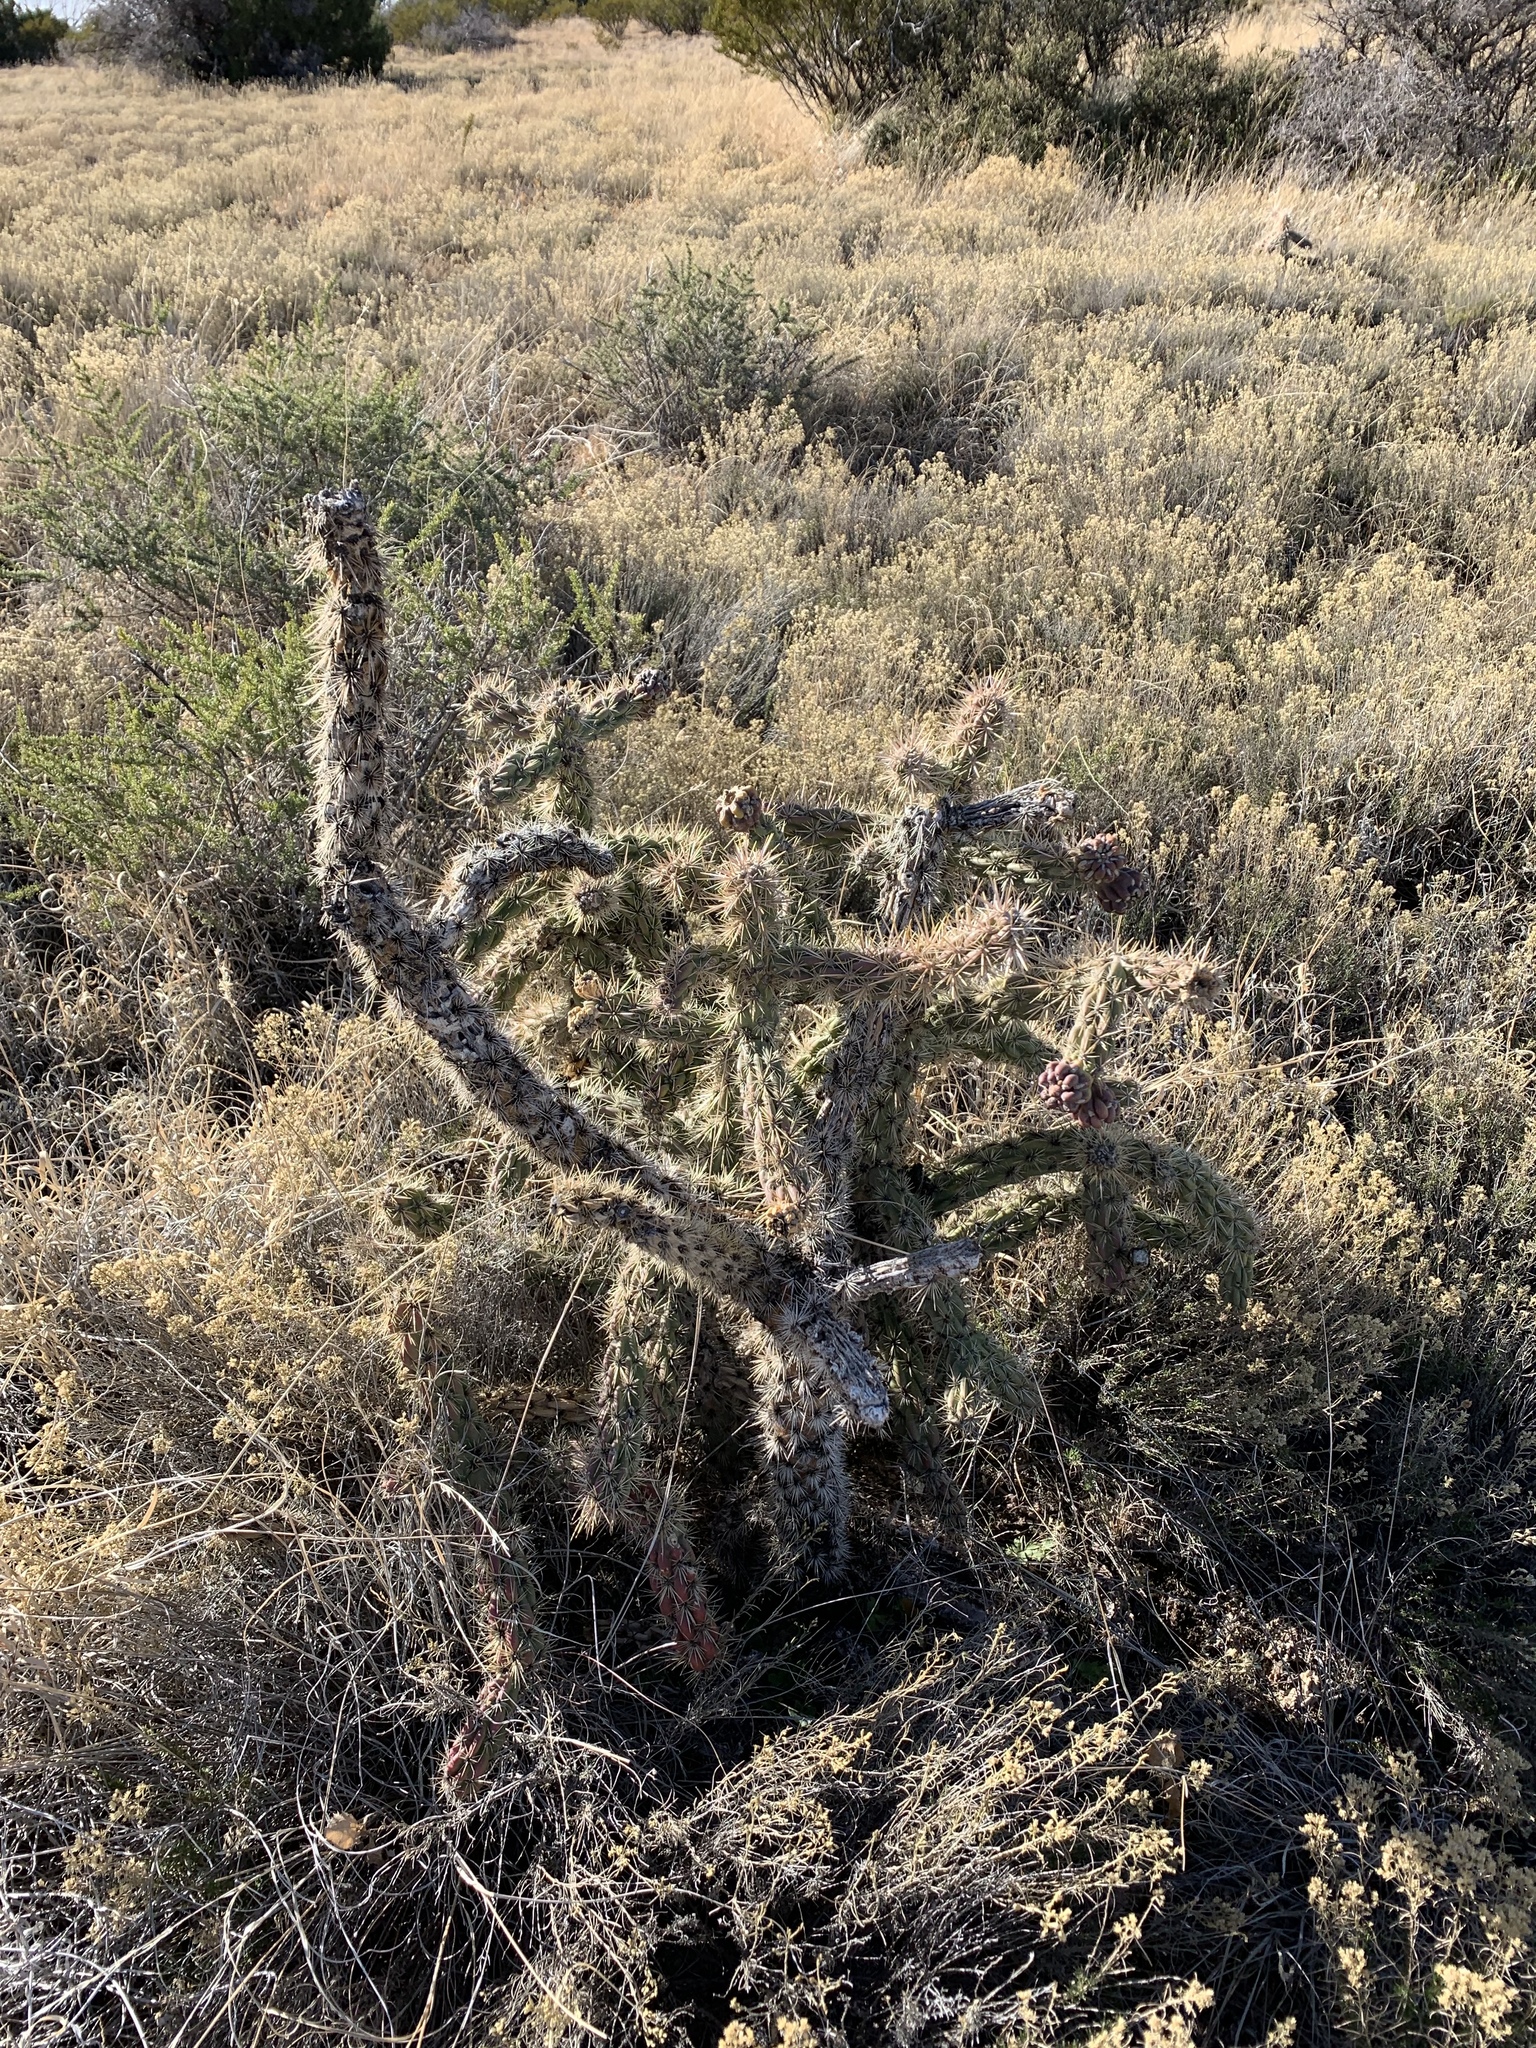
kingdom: Plantae
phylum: Tracheophyta
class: Magnoliopsida
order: Caryophyllales
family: Cactaceae
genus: Cylindropuntia
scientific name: Cylindropuntia imbricata
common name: Candelabrum cactus
